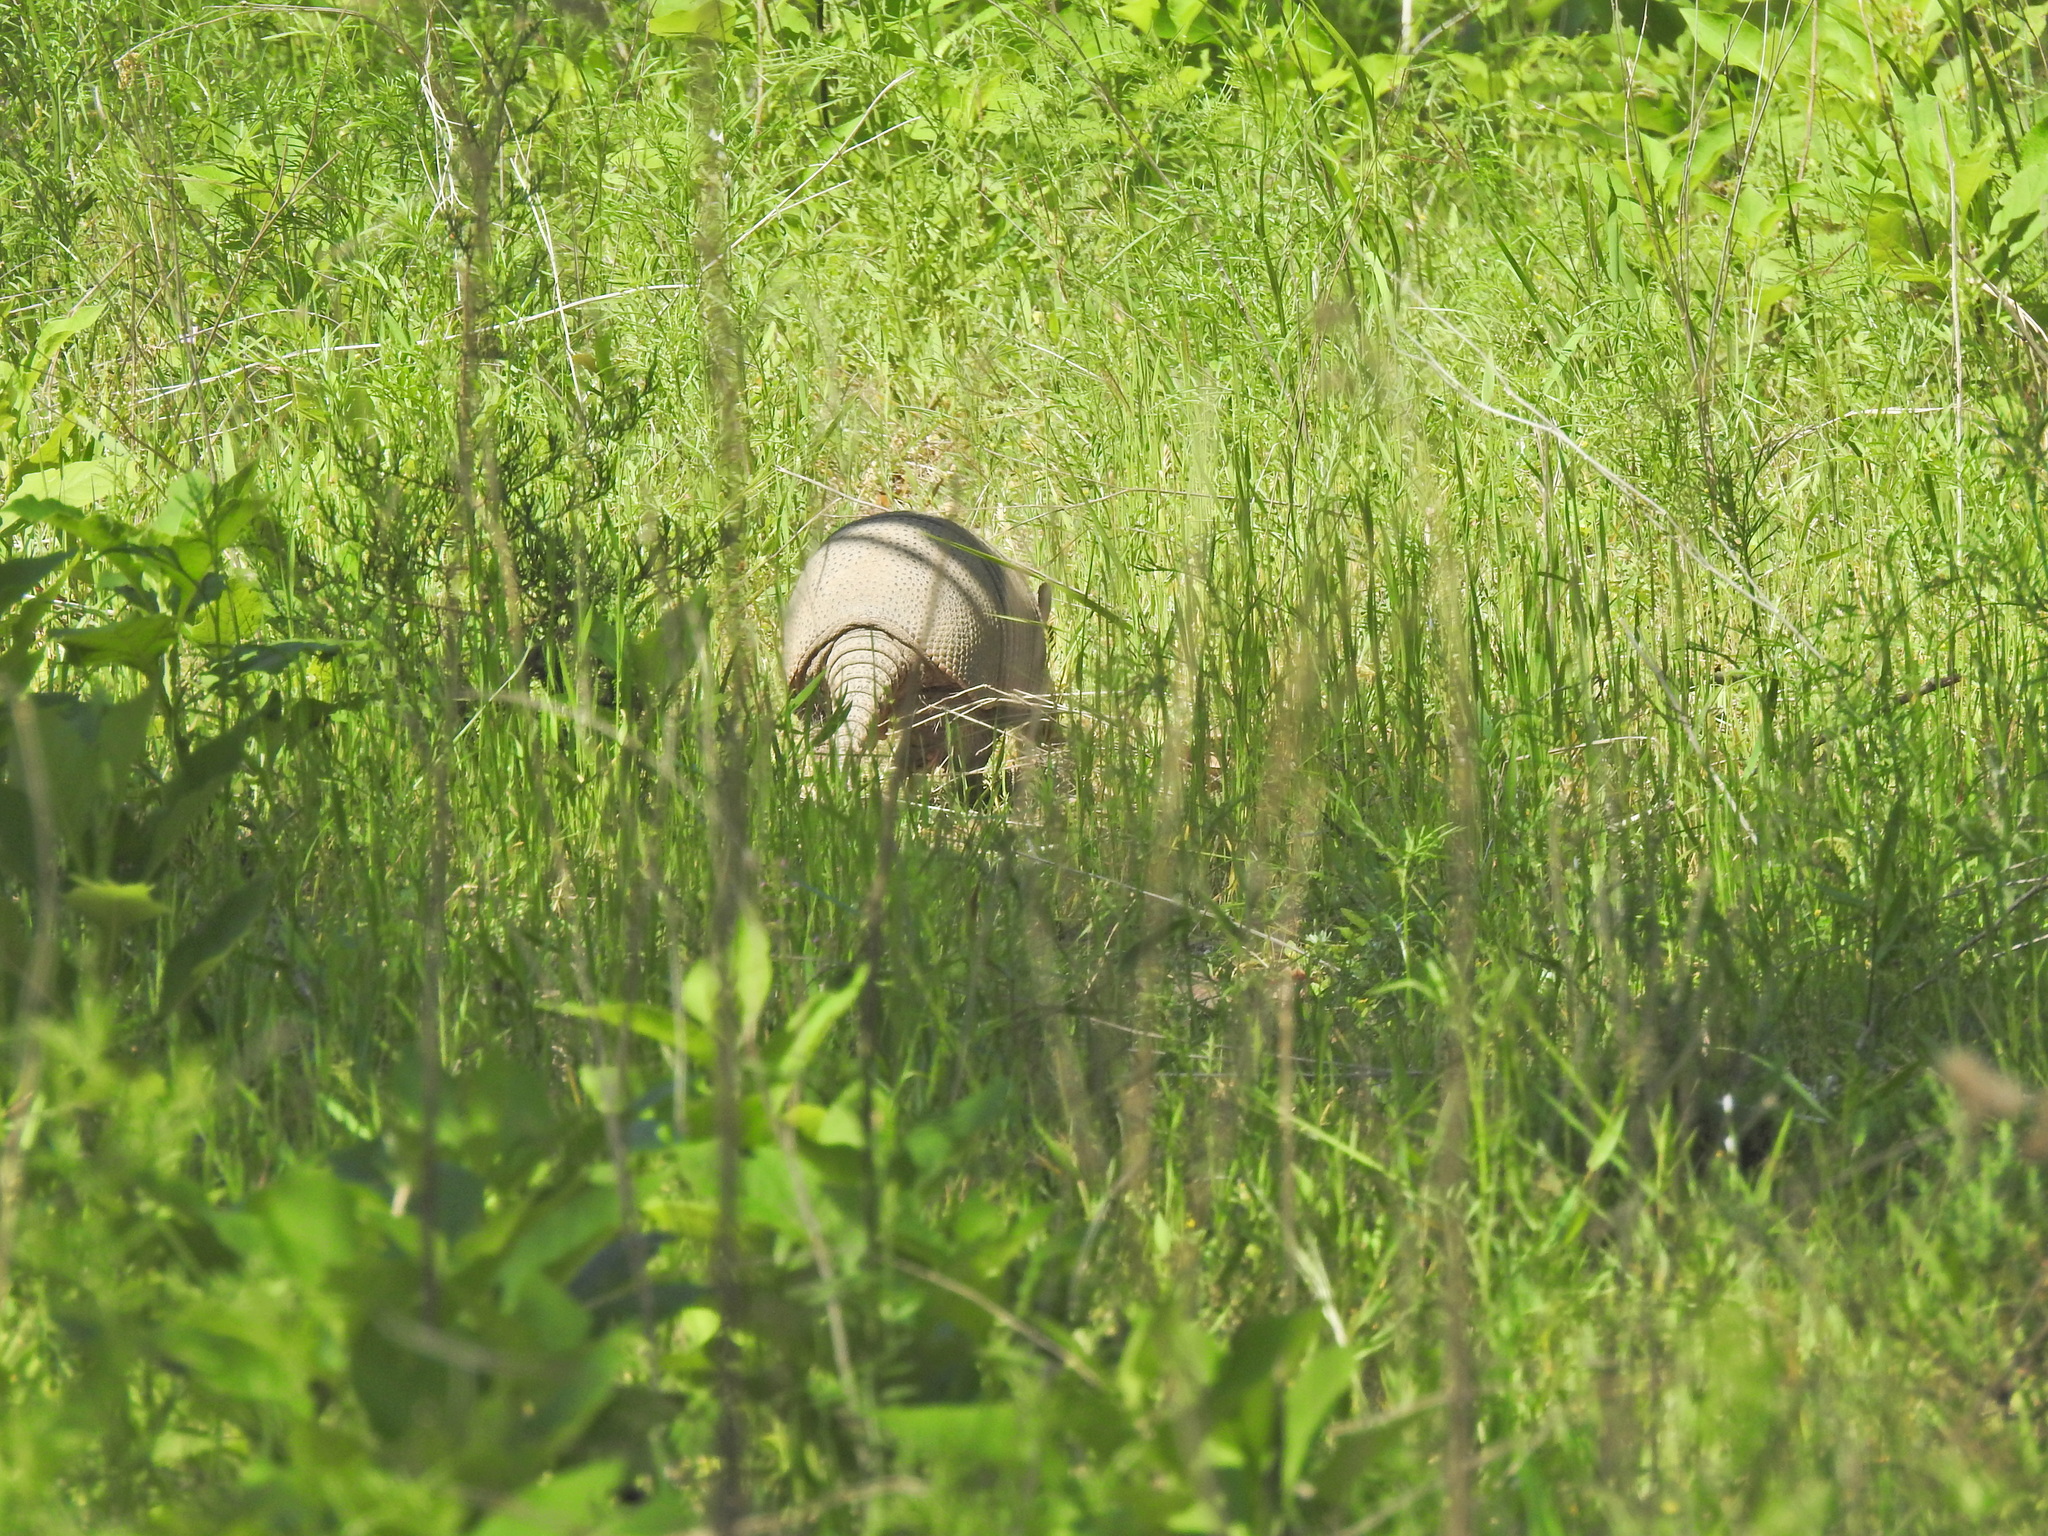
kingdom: Animalia
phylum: Chordata
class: Mammalia
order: Cingulata
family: Dasypodidae
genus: Dasypus
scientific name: Dasypus novemcinctus
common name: Nine-banded armadillo
